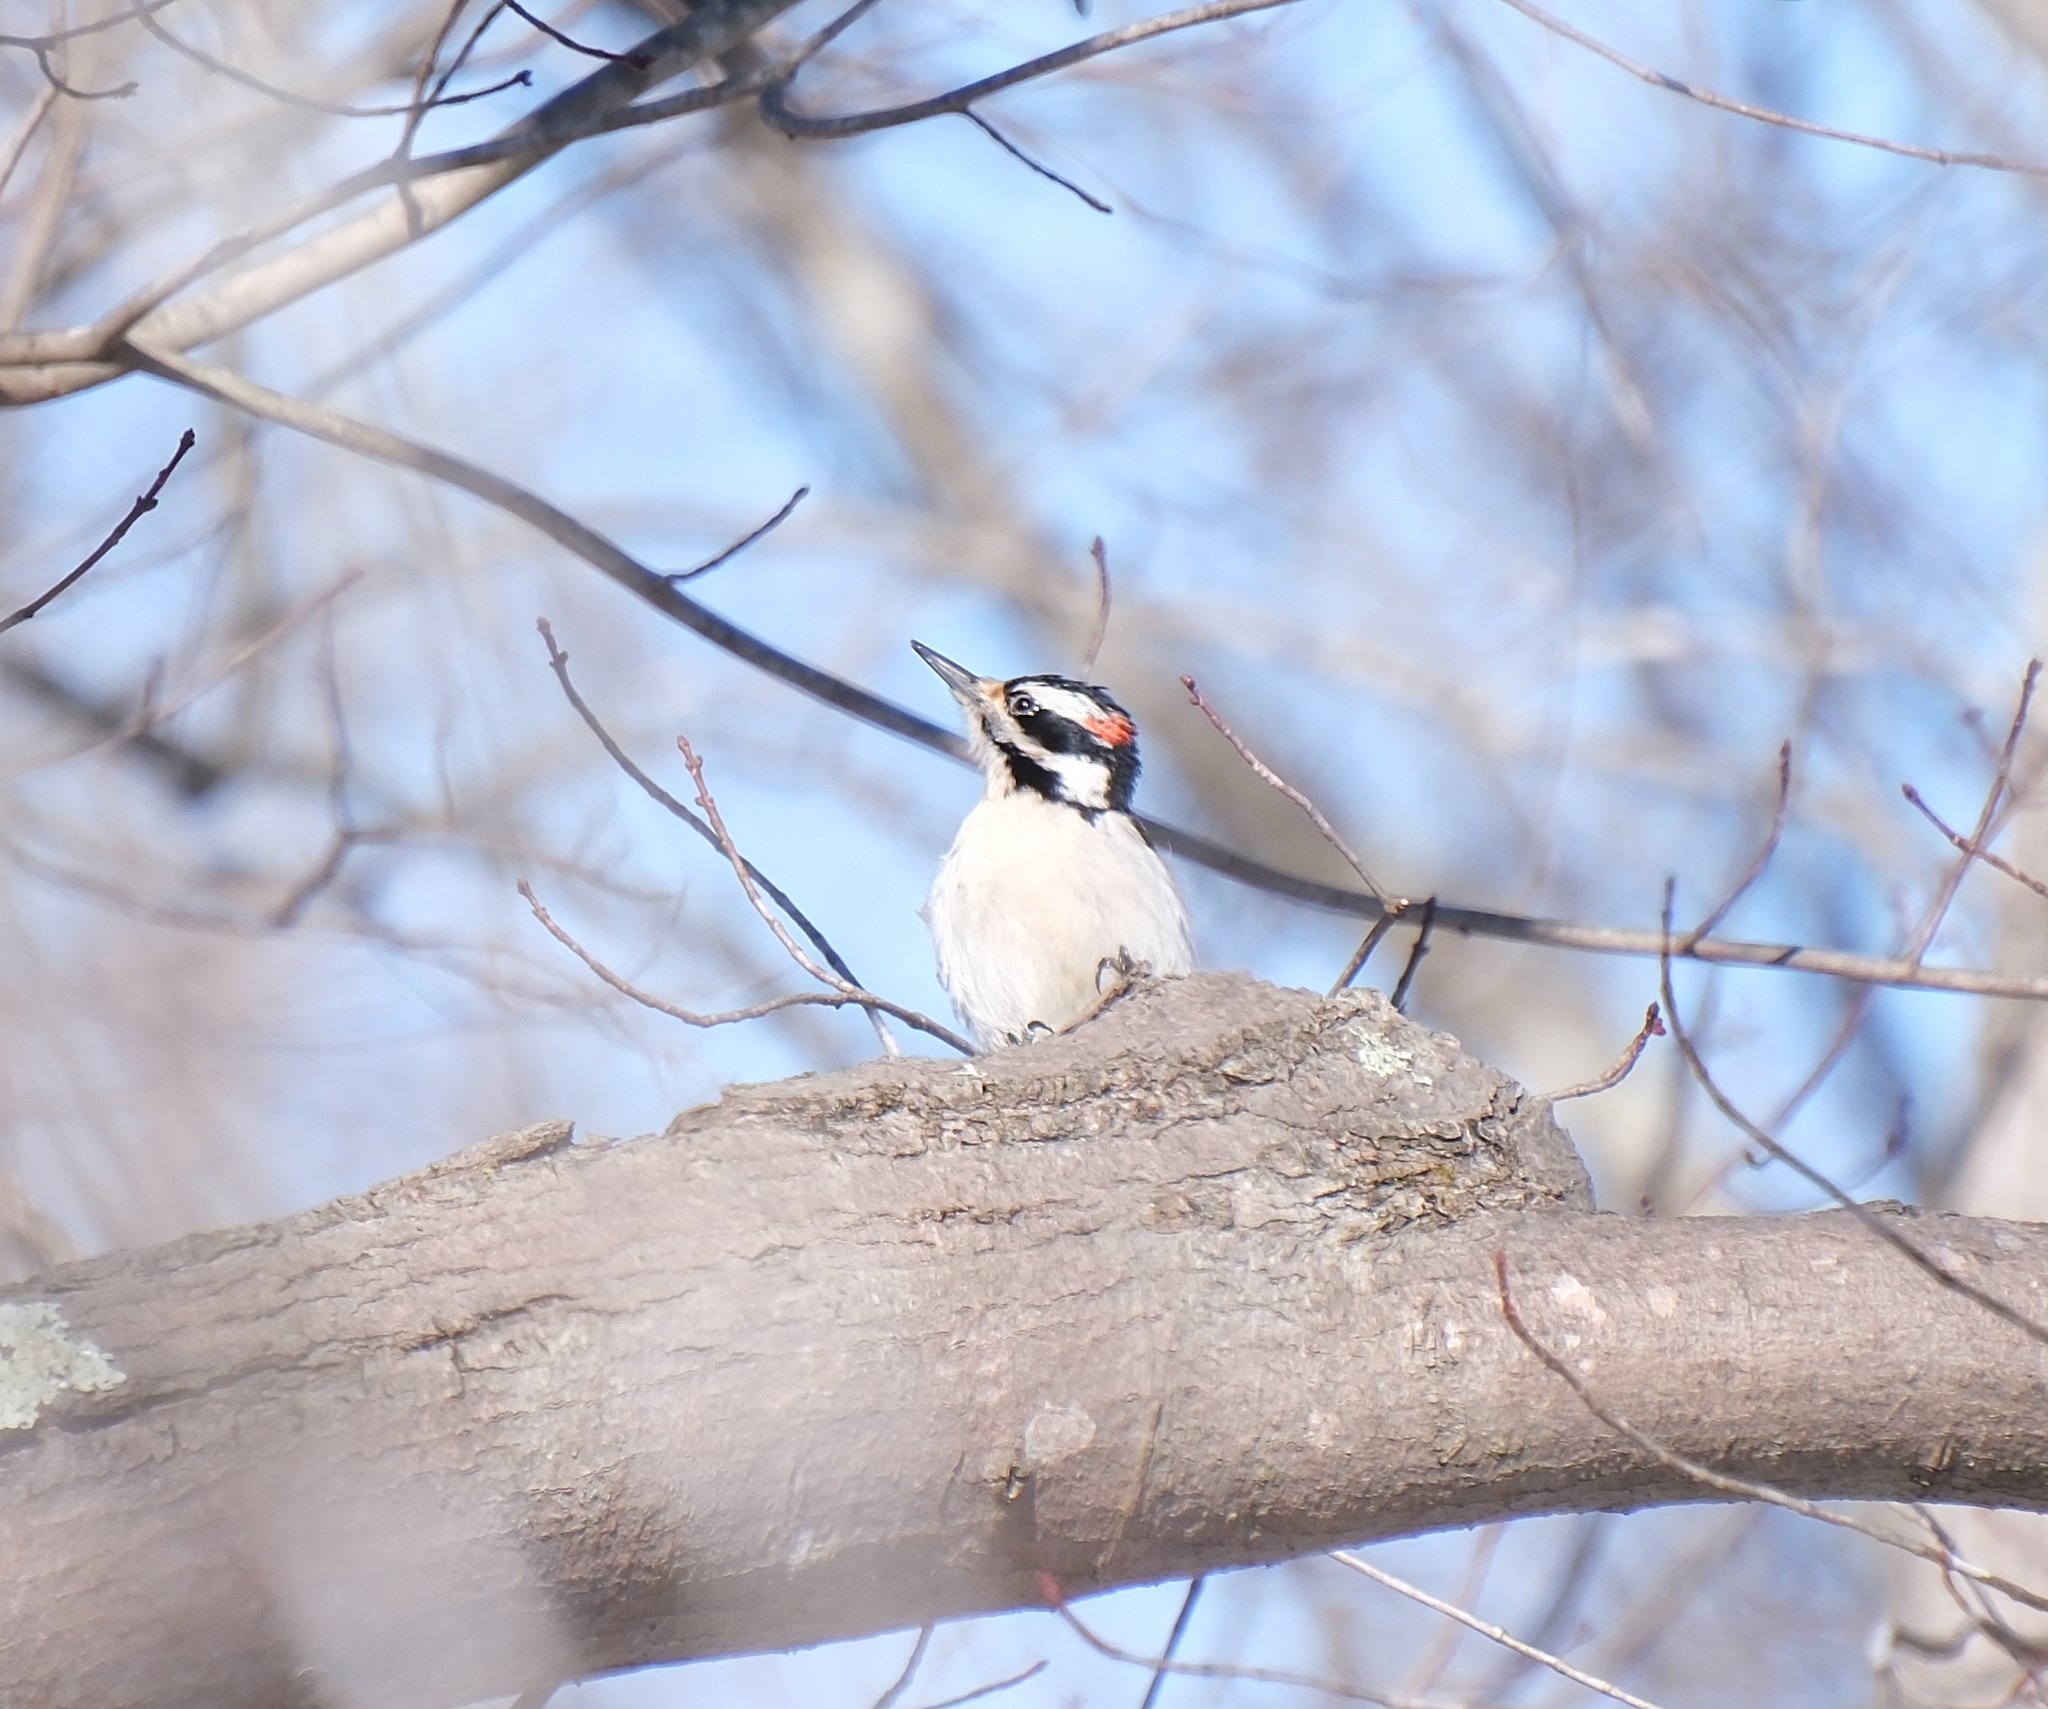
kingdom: Animalia
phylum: Chordata
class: Aves
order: Piciformes
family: Picidae
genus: Leuconotopicus
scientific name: Leuconotopicus villosus
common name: Hairy woodpecker
